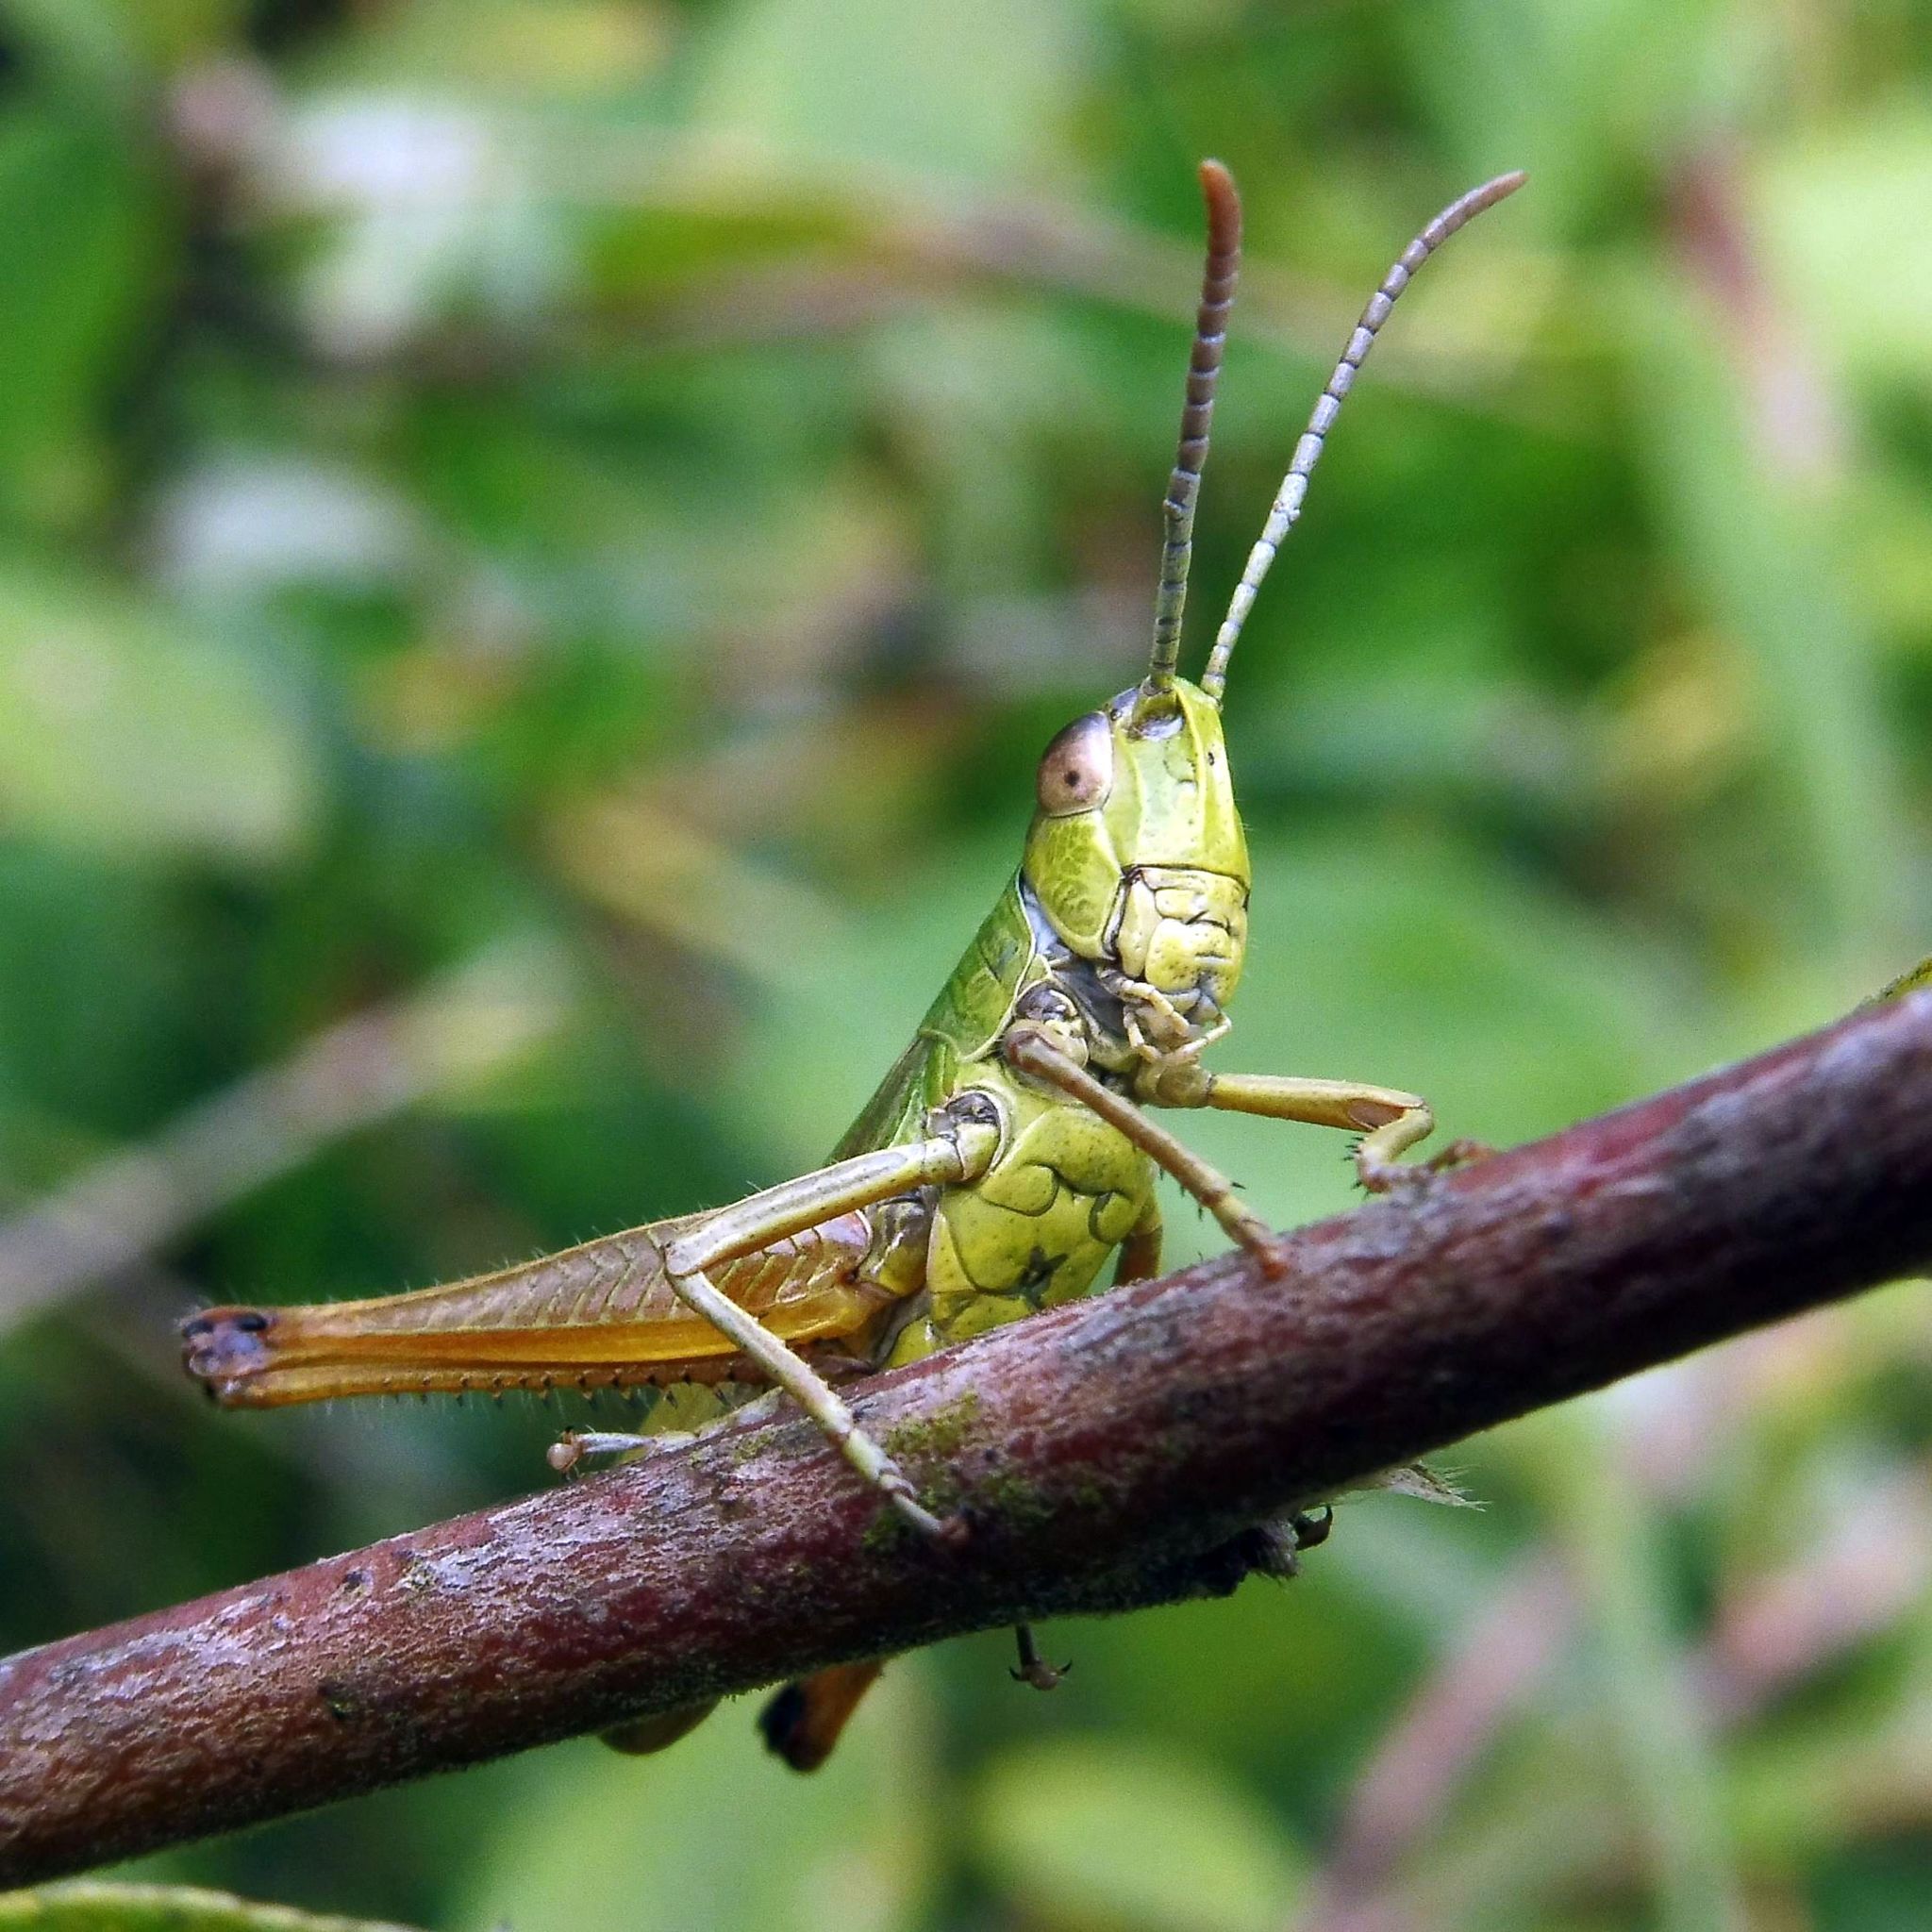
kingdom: Animalia
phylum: Arthropoda
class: Insecta
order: Orthoptera
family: Acrididae
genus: Pseudochorthippus
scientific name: Pseudochorthippus parallelus
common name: Meadow grasshopper
